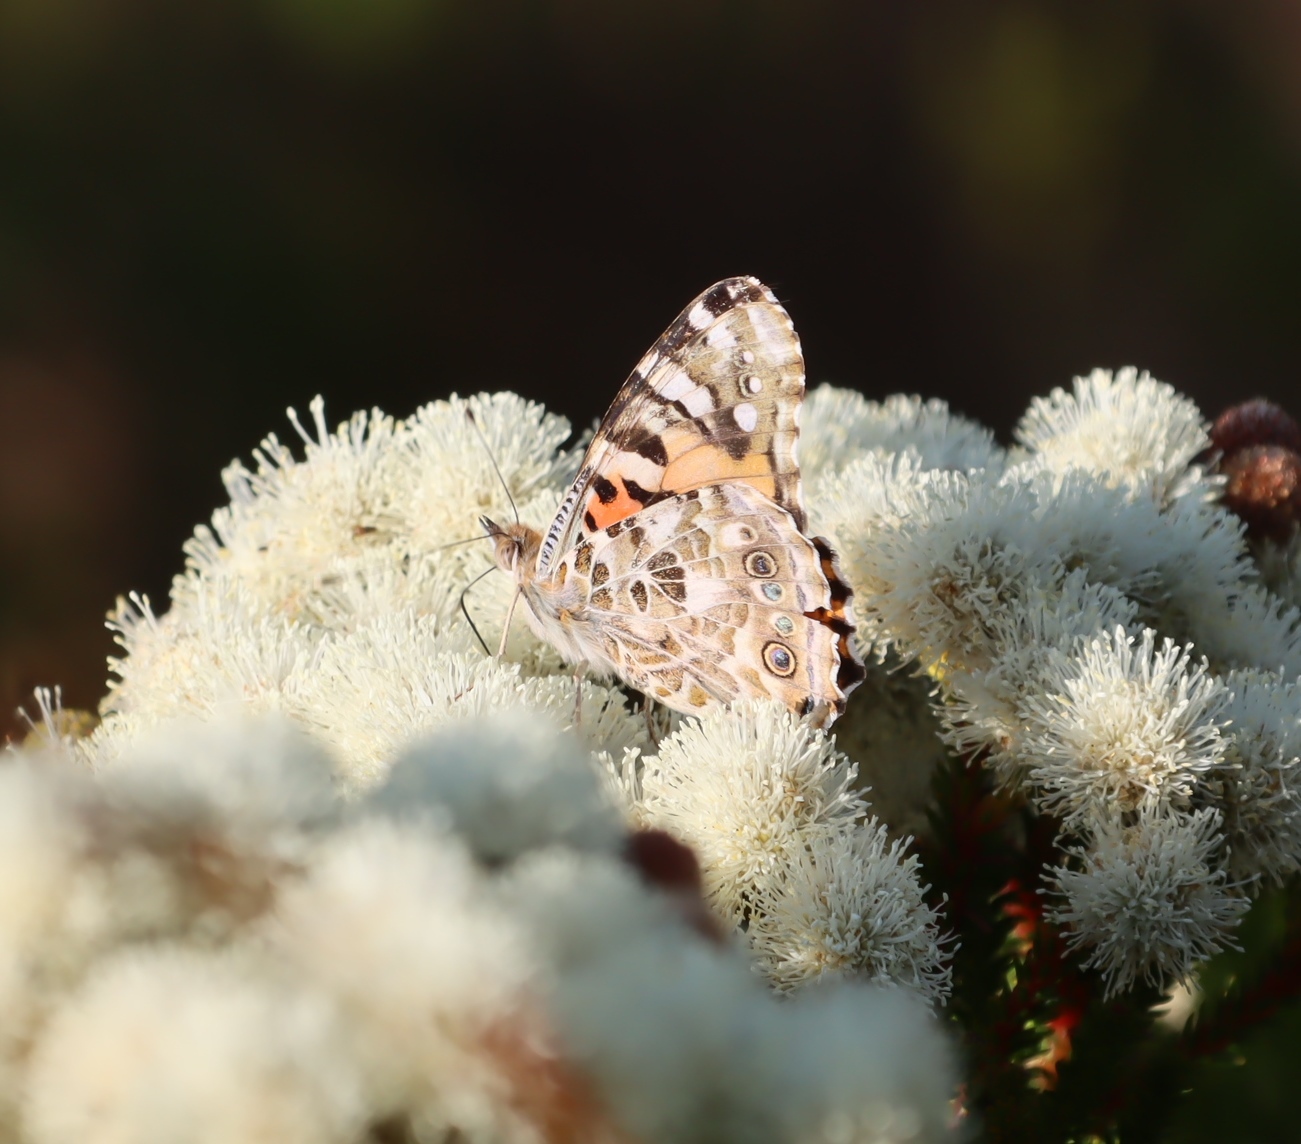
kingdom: Animalia
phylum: Arthropoda
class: Insecta
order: Lepidoptera
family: Nymphalidae
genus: Vanessa
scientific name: Vanessa cardui
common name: Painted lady
